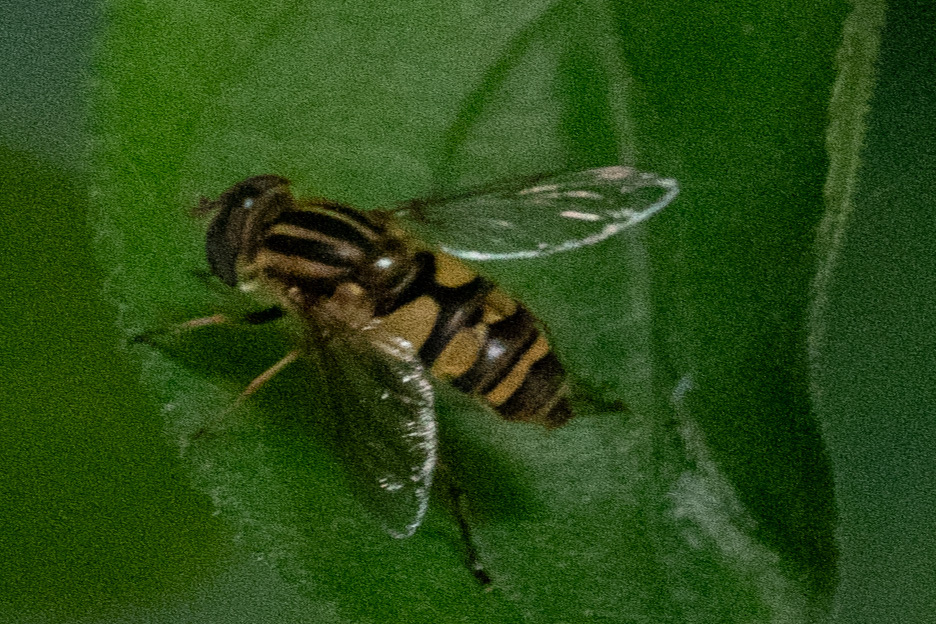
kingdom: Animalia
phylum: Arthropoda
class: Insecta
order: Diptera
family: Syrphidae
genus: Helophilus
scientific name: Helophilus fasciatus
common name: Narrow-headed marsh fly
